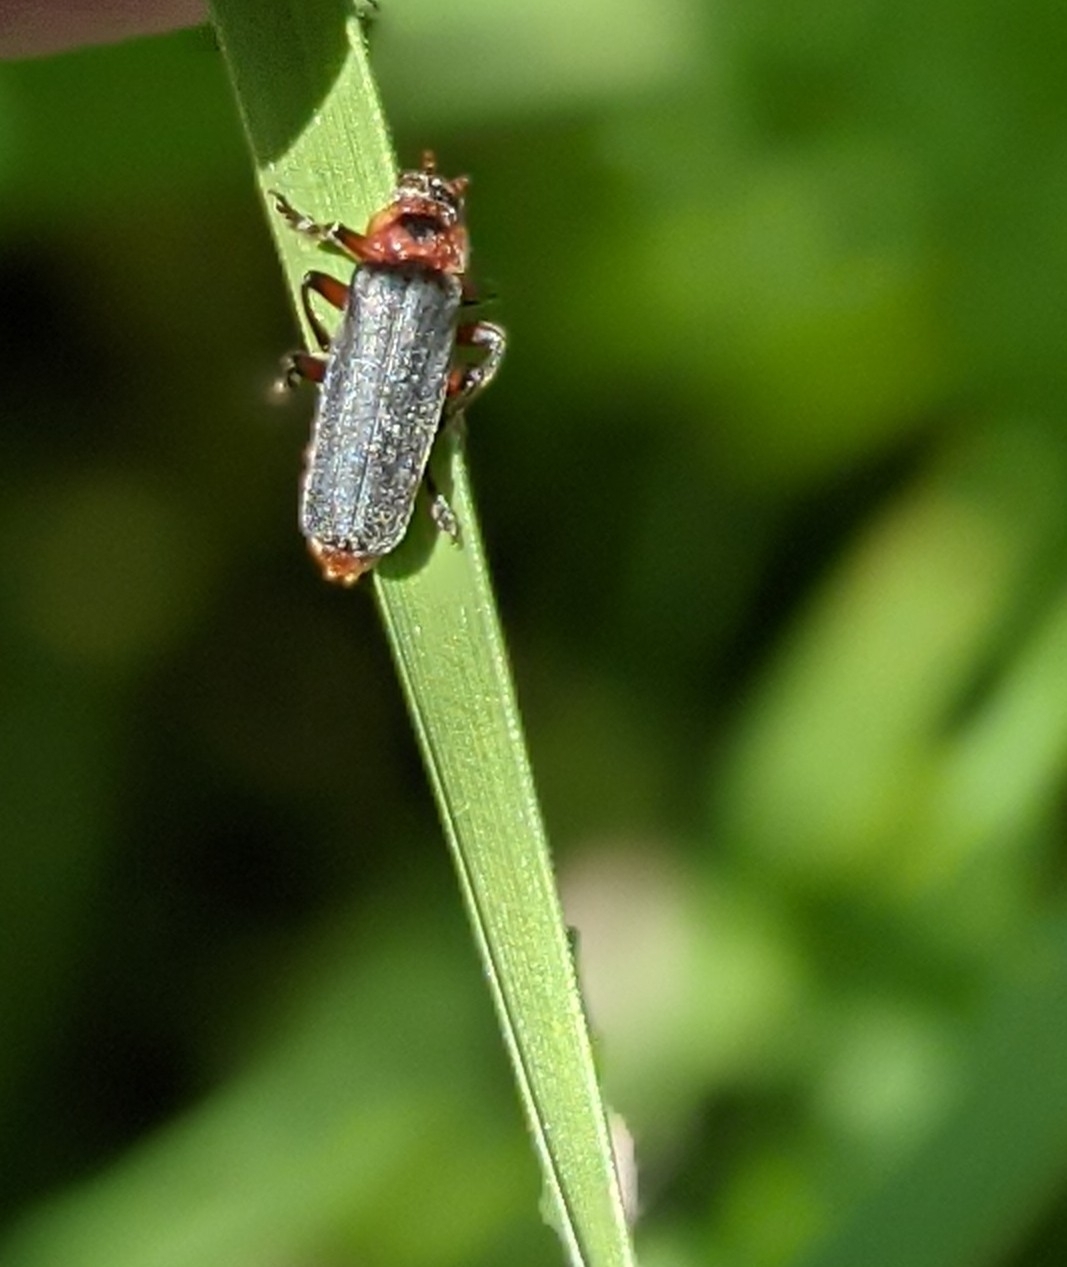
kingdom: Animalia
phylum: Arthropoda
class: Insecta
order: Coleoptera
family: Cantharidae
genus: Cantharis
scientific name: Cantharis rustica
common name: Soldier beetle
